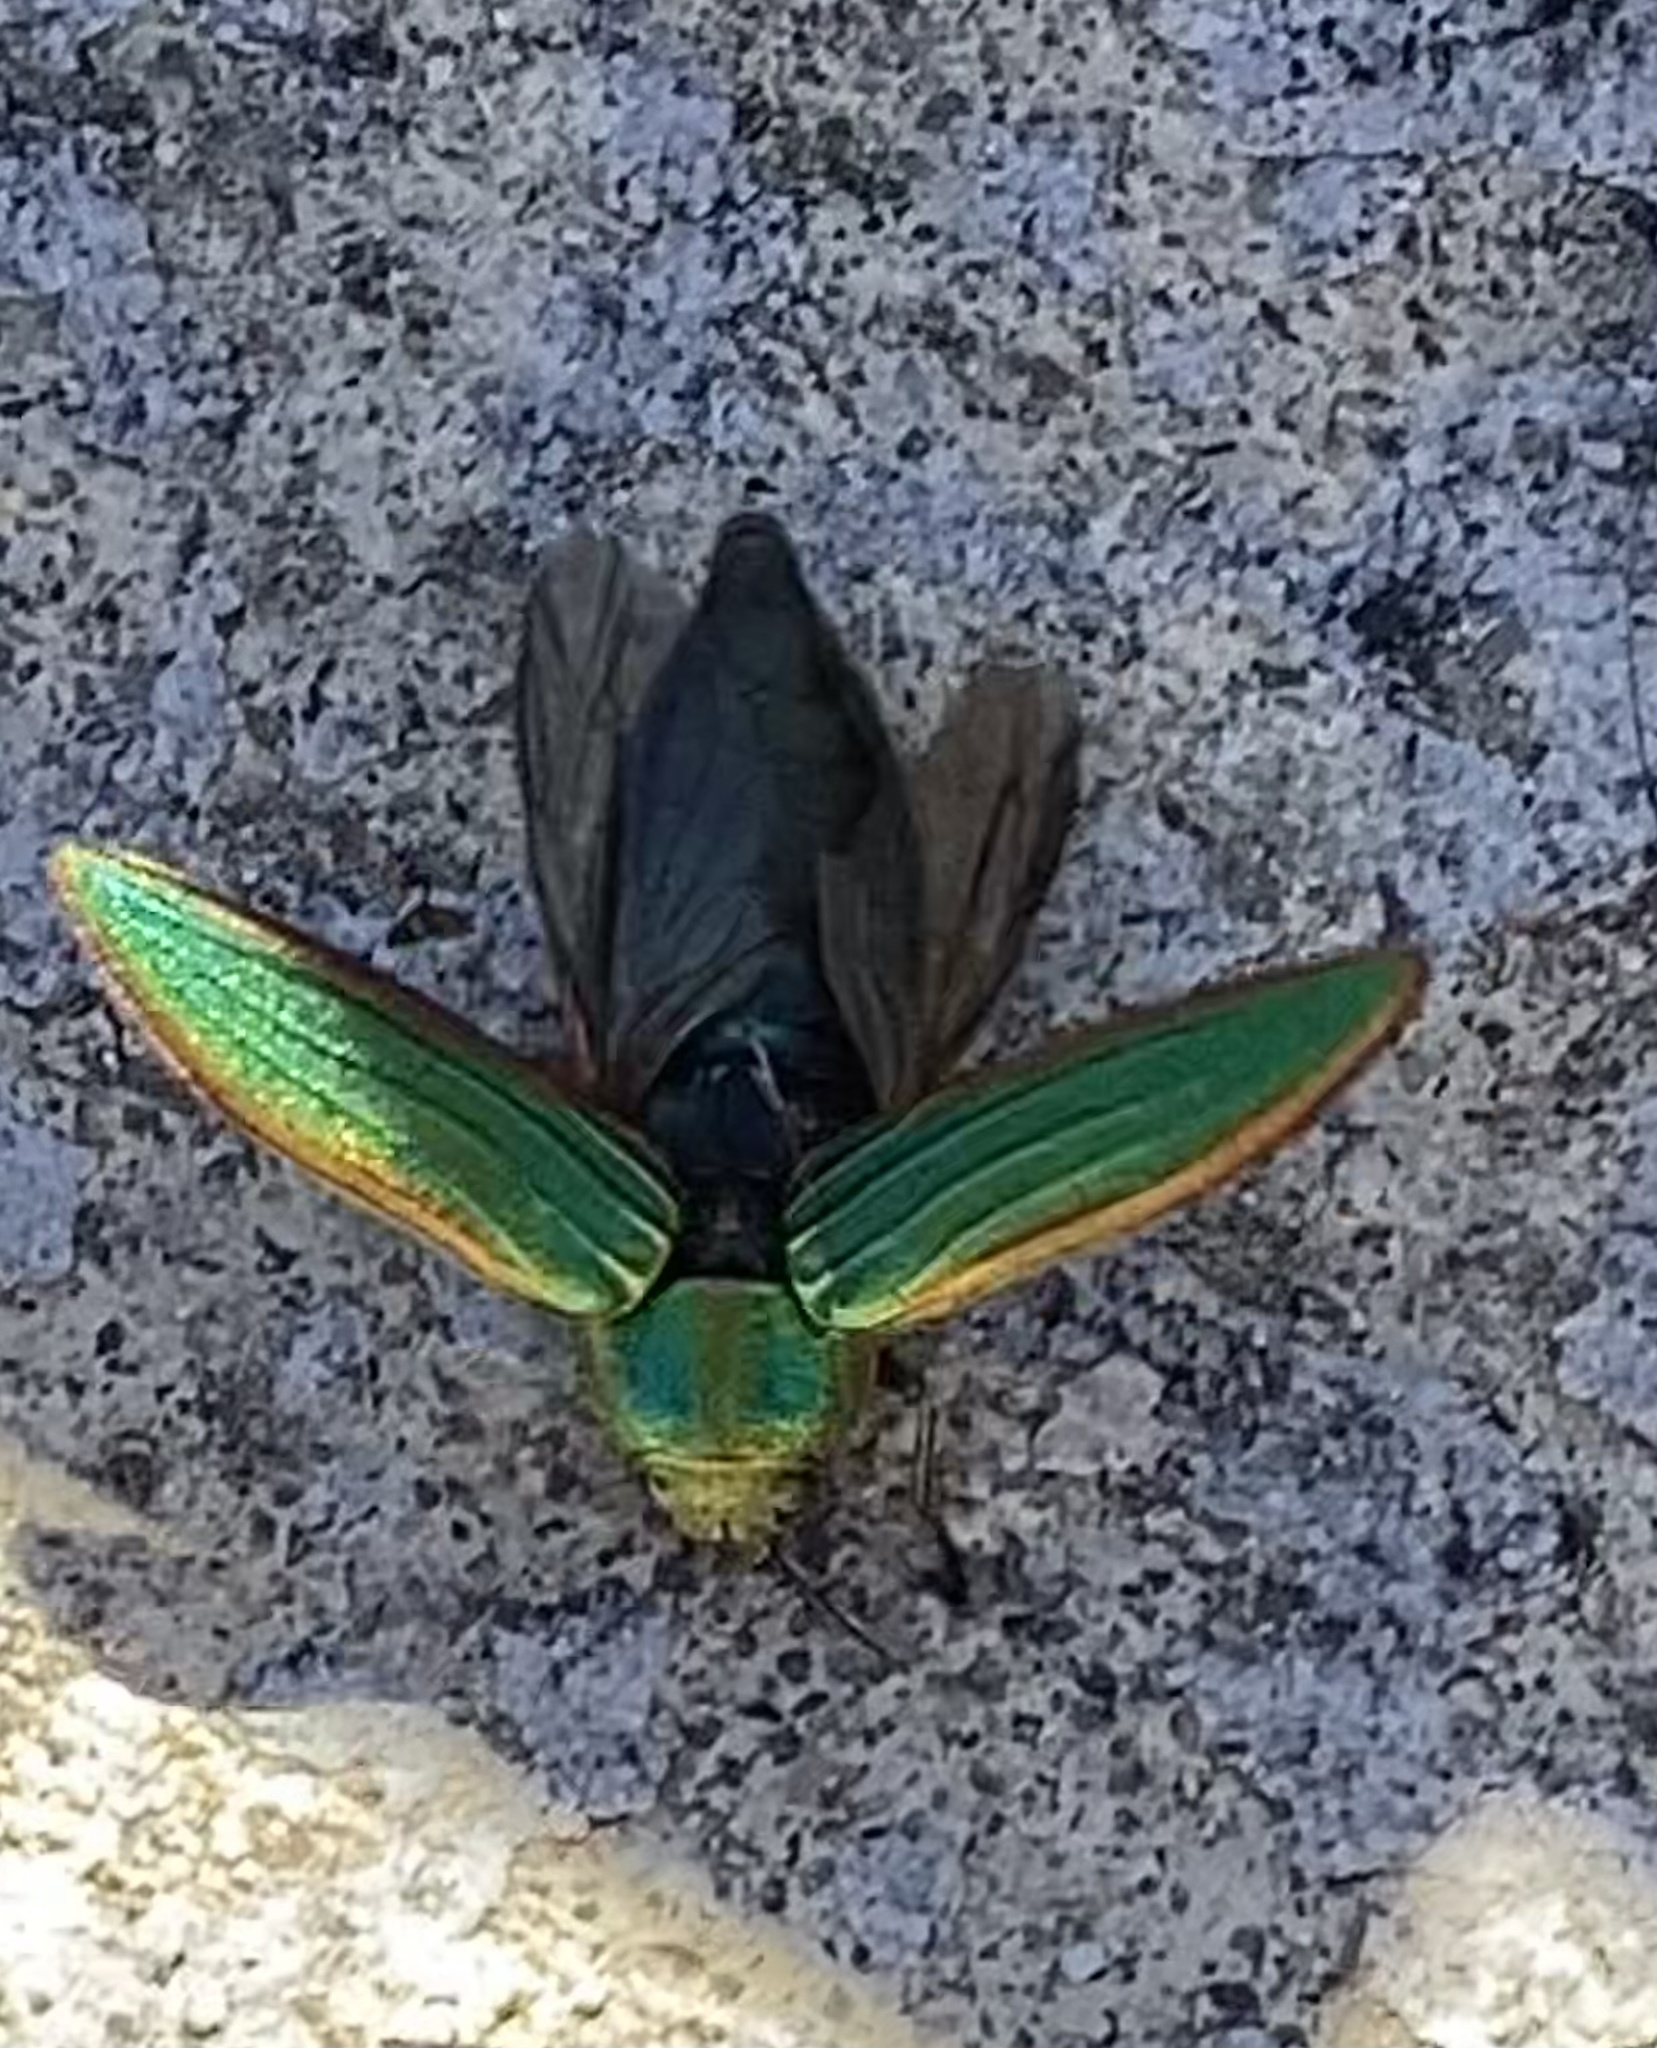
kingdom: Animalia
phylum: Arthropoda
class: Insecta
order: Coleoptera
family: Buprestidae
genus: Buprestis
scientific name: Buprestis aurulenta
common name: Golden buprestid
